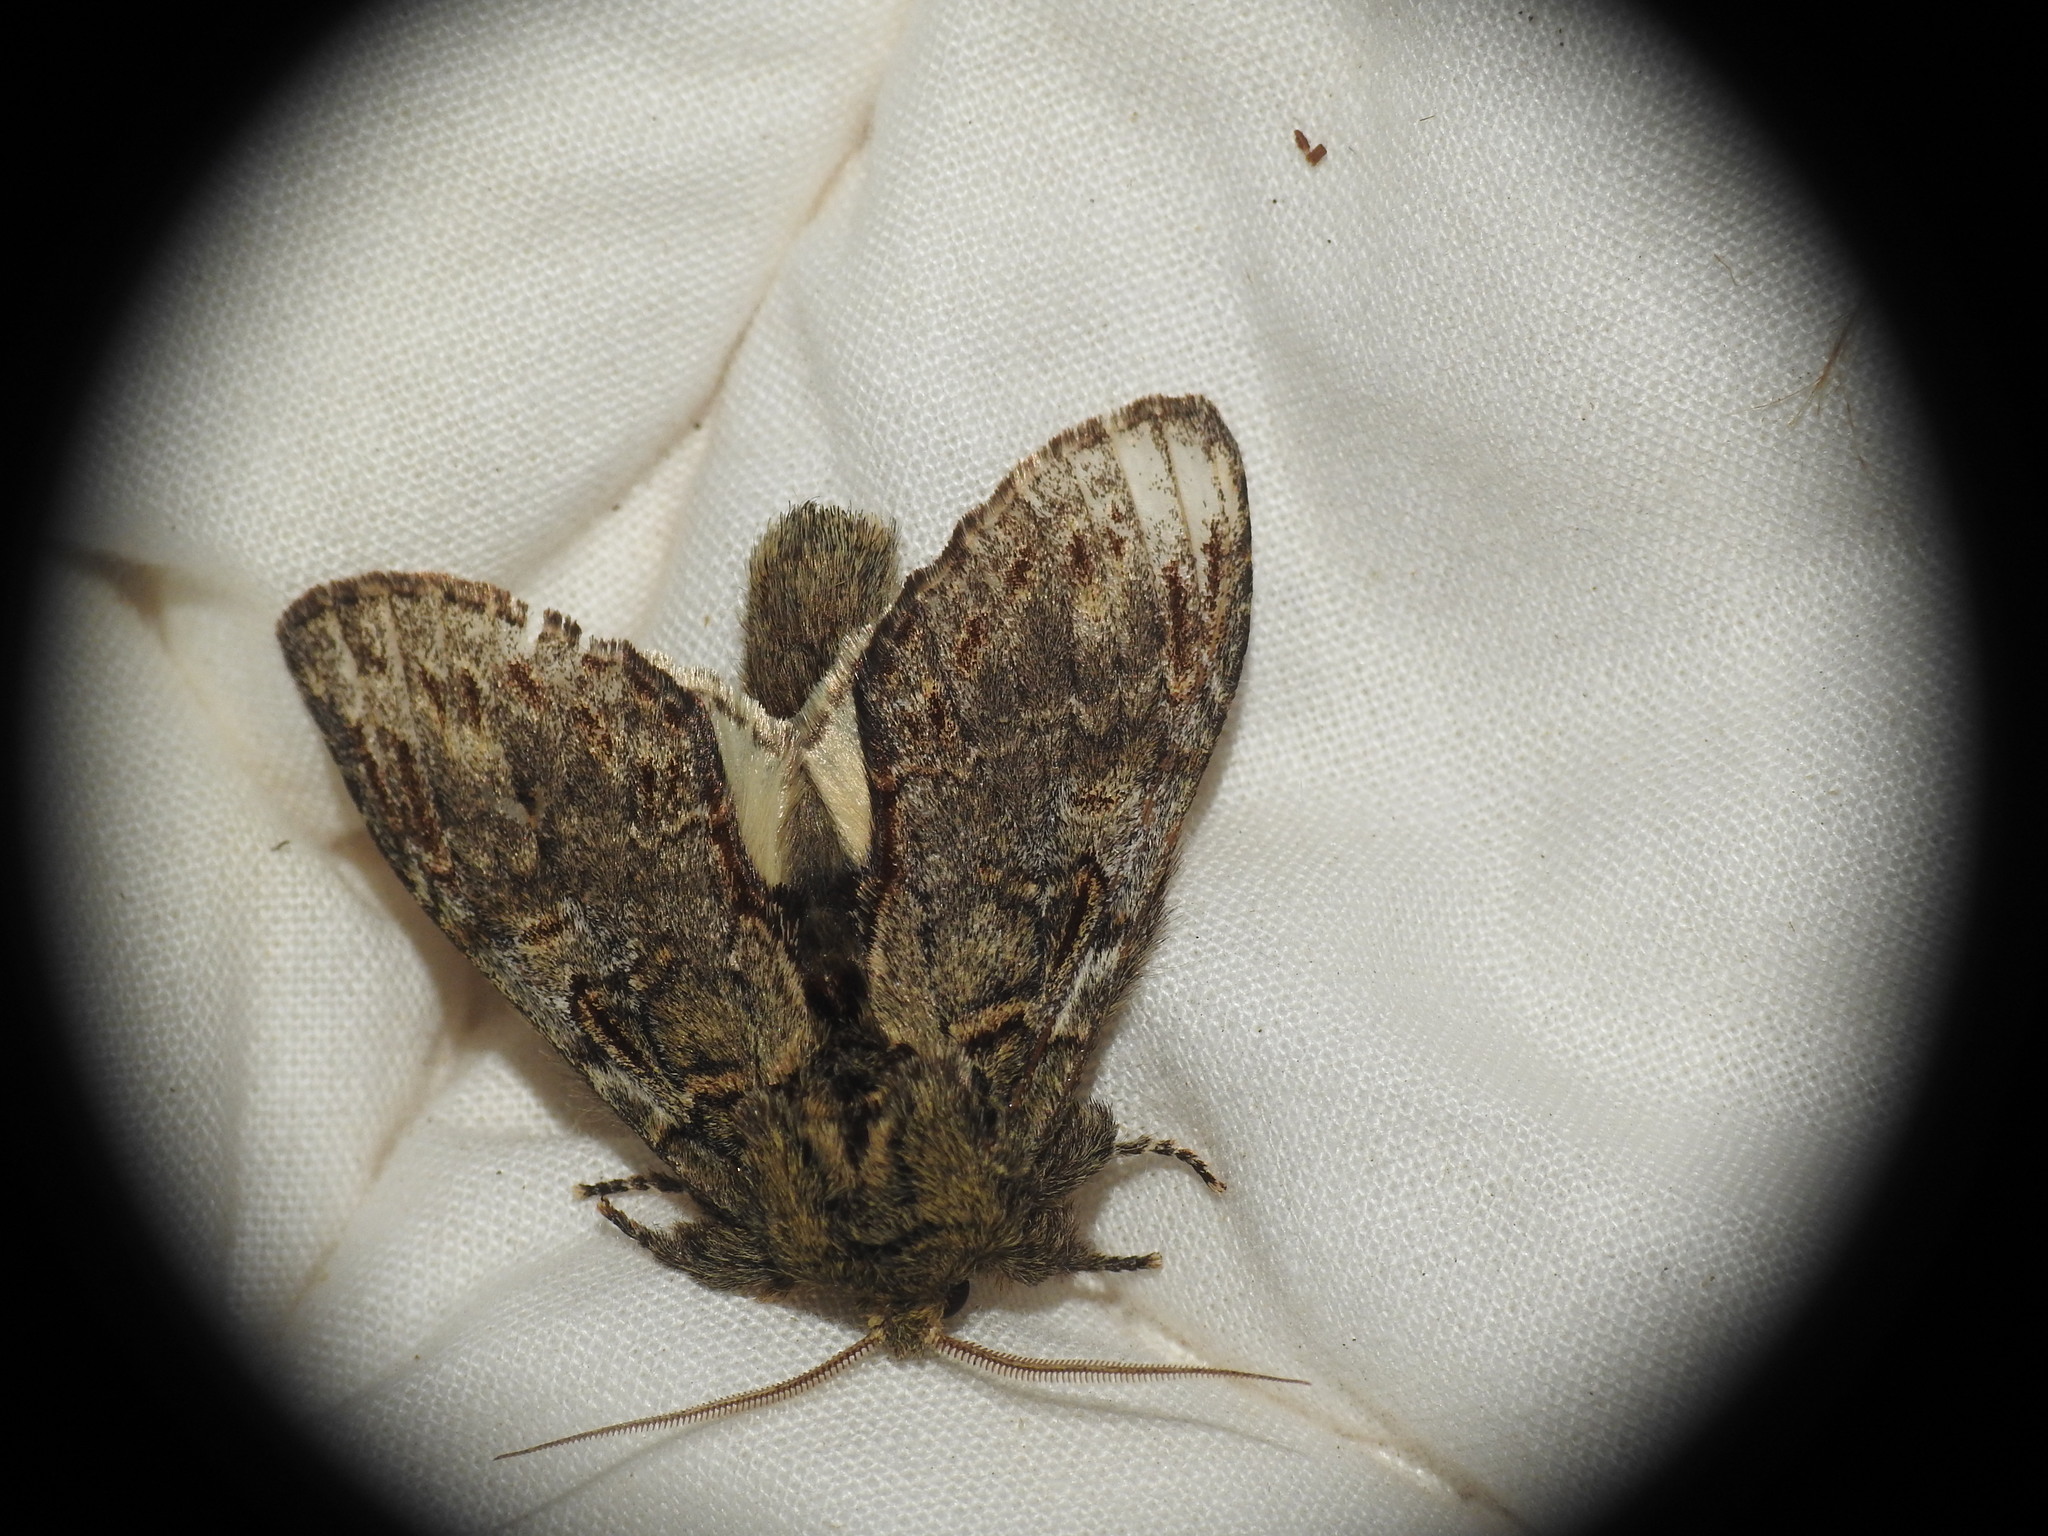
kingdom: Animalia
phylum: Arthropoda
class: Insecta
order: Lepidoptera
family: Notodontidae
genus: Peridea
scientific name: Peridea anceps
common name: Great prominent
